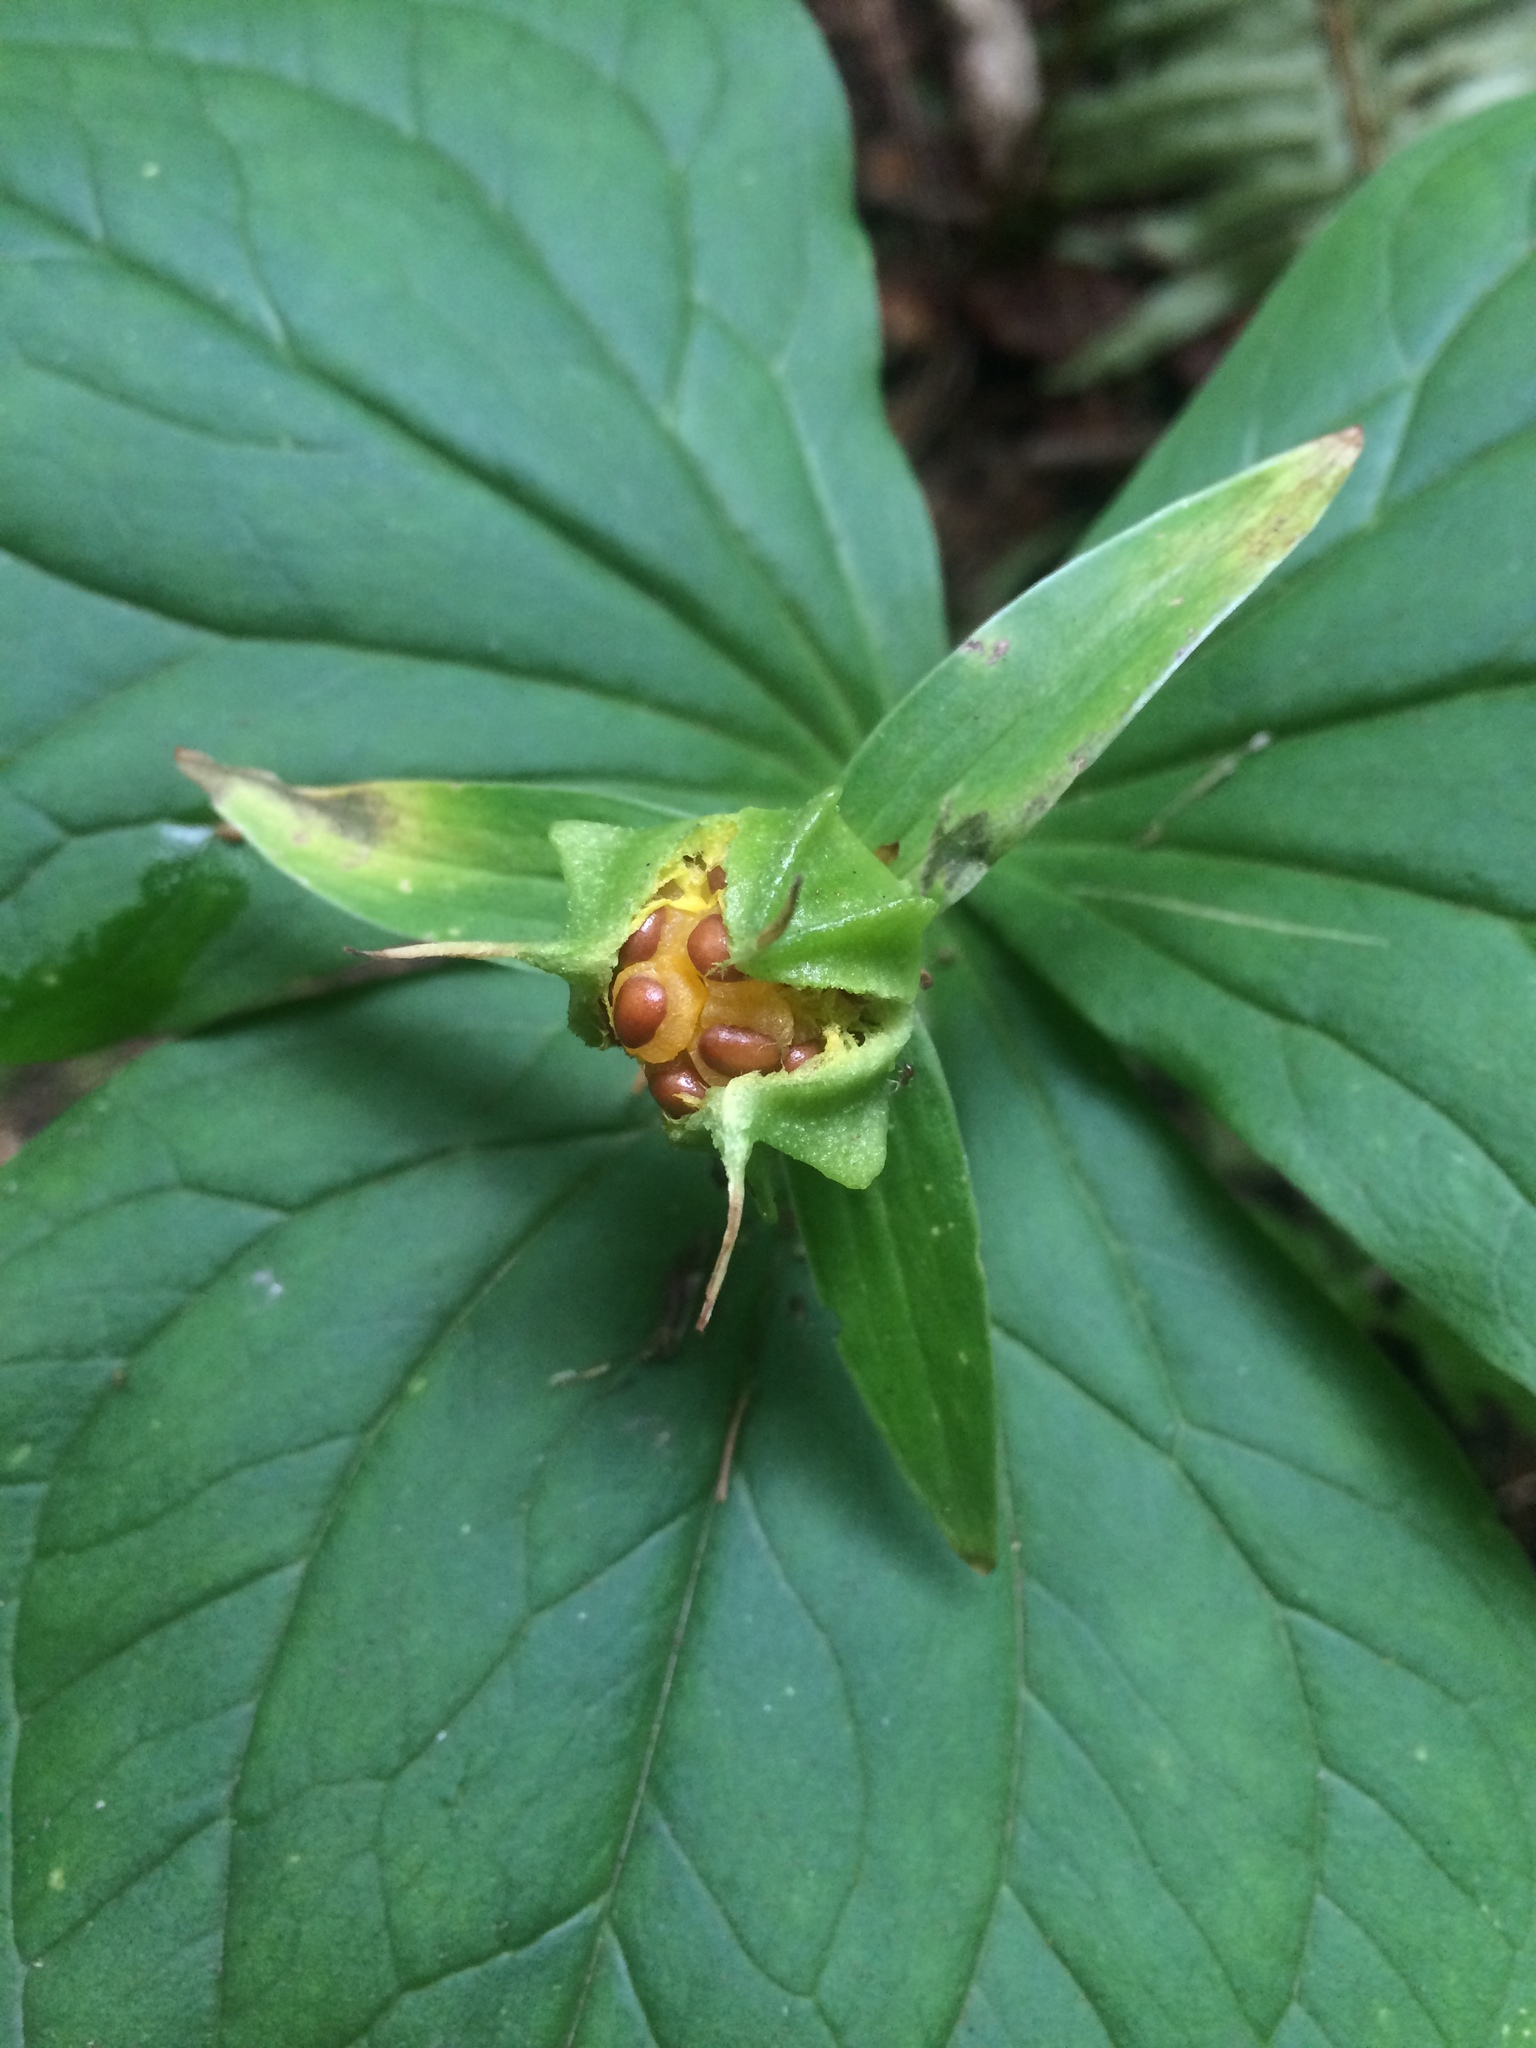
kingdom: Plantae
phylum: Tracheophyta
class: Liliopsida
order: Liliales
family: Melanthiaceae
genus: Trillium
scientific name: Trillium ovatum
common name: Pacific trillium
